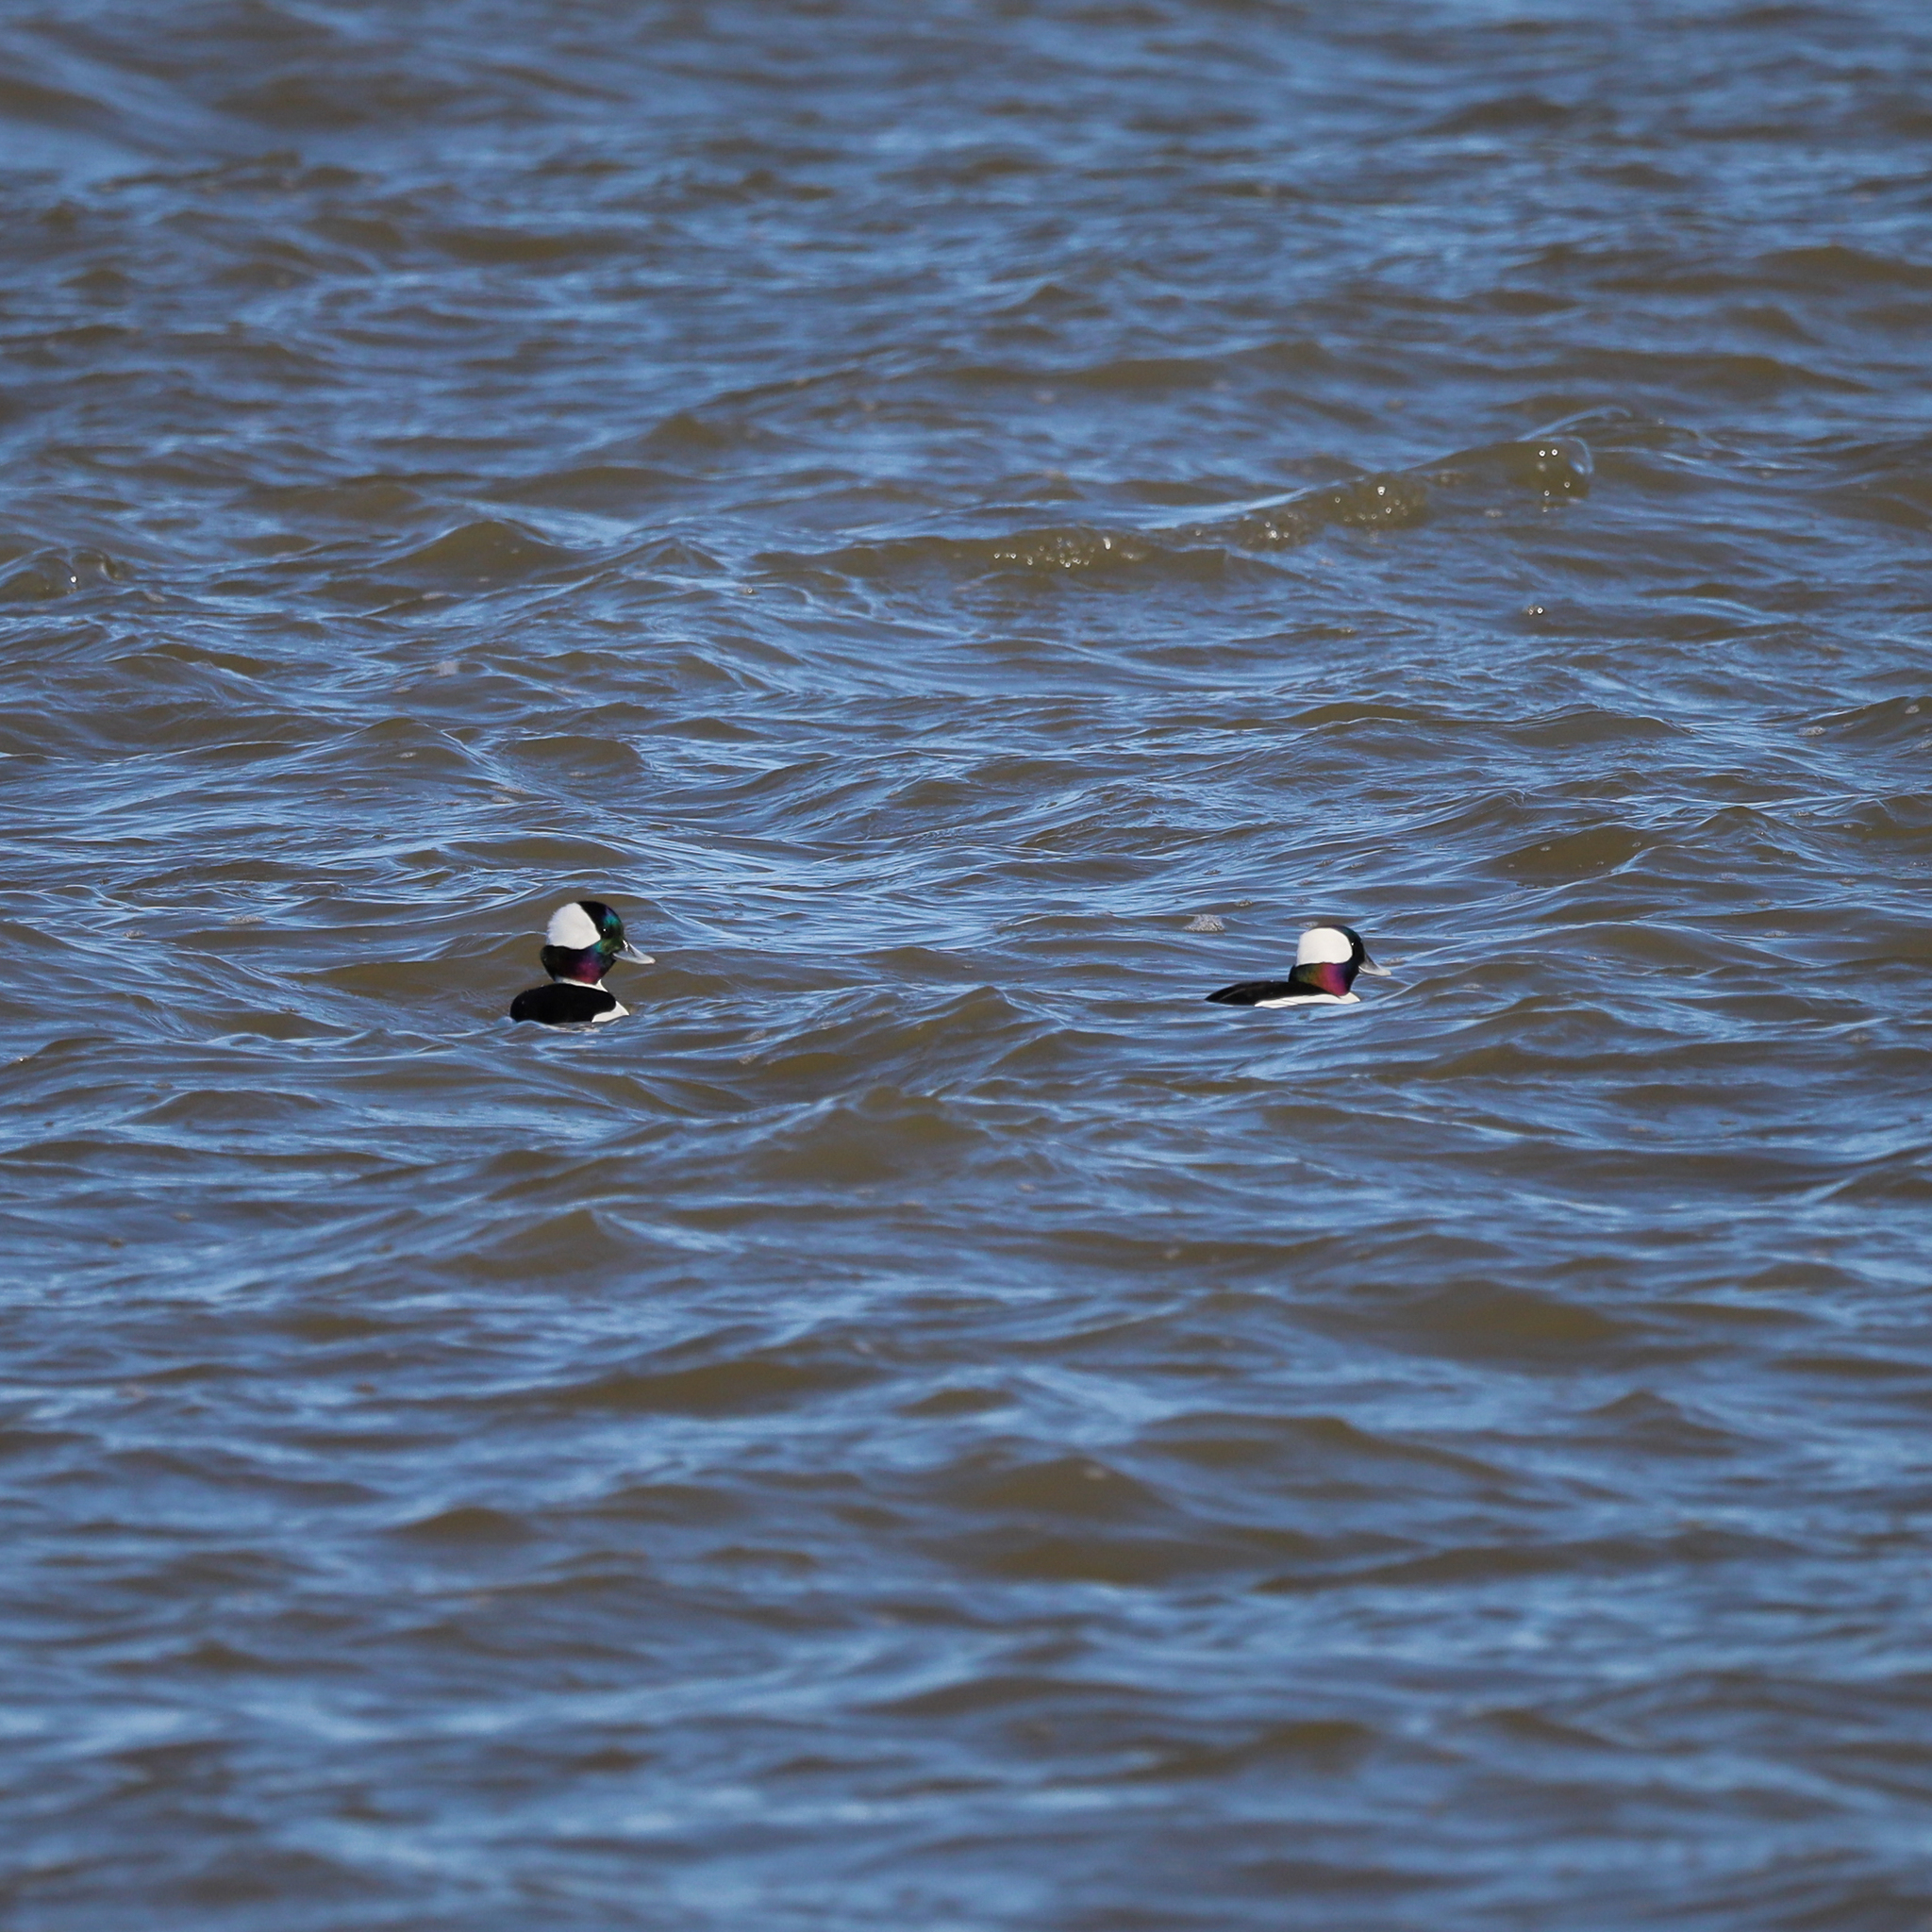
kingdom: Animalia
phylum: Chordata
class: Aves
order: Anseriformes
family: Anatidae
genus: Bucephala
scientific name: Bucephala albeola
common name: Bufflehead
